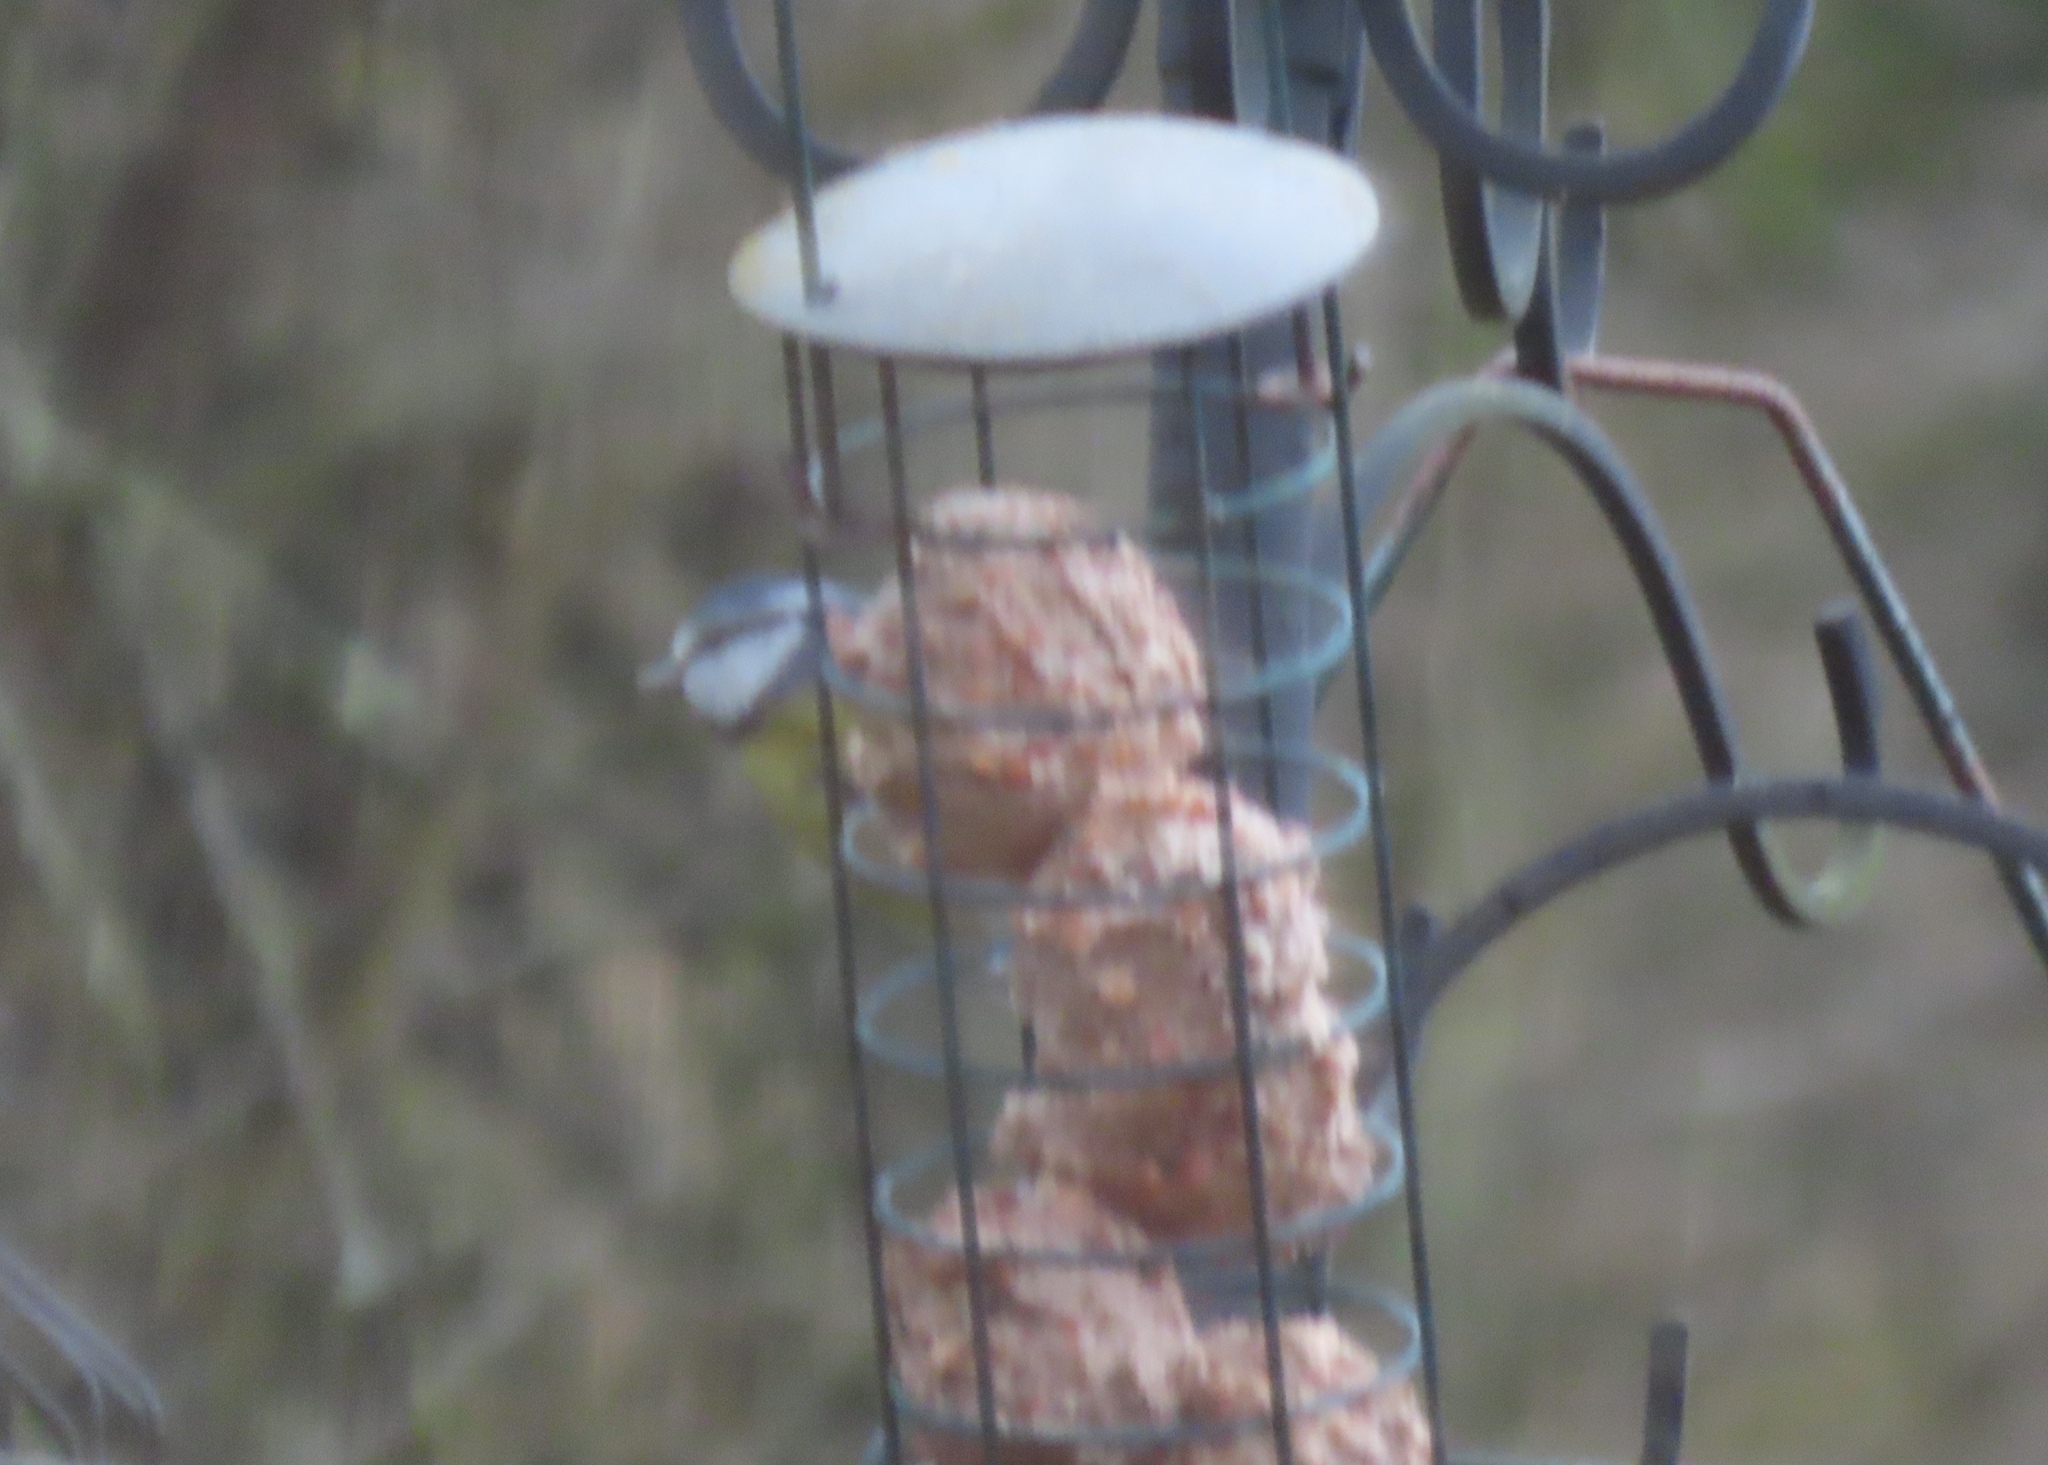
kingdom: Animalia
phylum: Chordata
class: Aves
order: Passeriformes
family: Paridae
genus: Cyanistes
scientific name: Cyanistes caeruleus
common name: Eurasian blue tit
